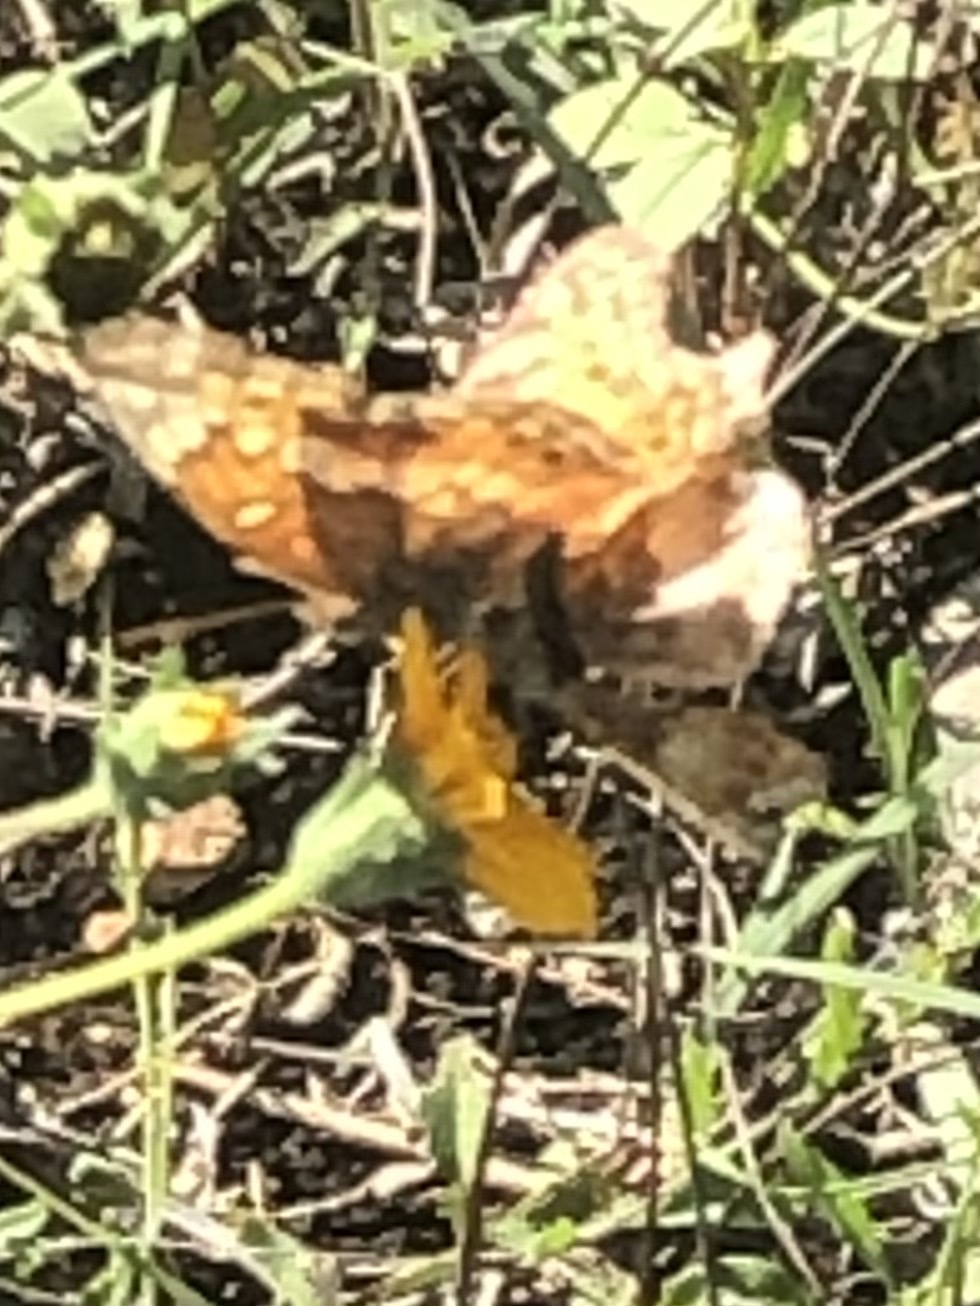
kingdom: Animalia
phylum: Arthropoda
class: Insecta
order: Lepidoptera
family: Nymphalidae
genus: Euptoieta
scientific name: Euptoieta claudia
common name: Variegated fritillary
